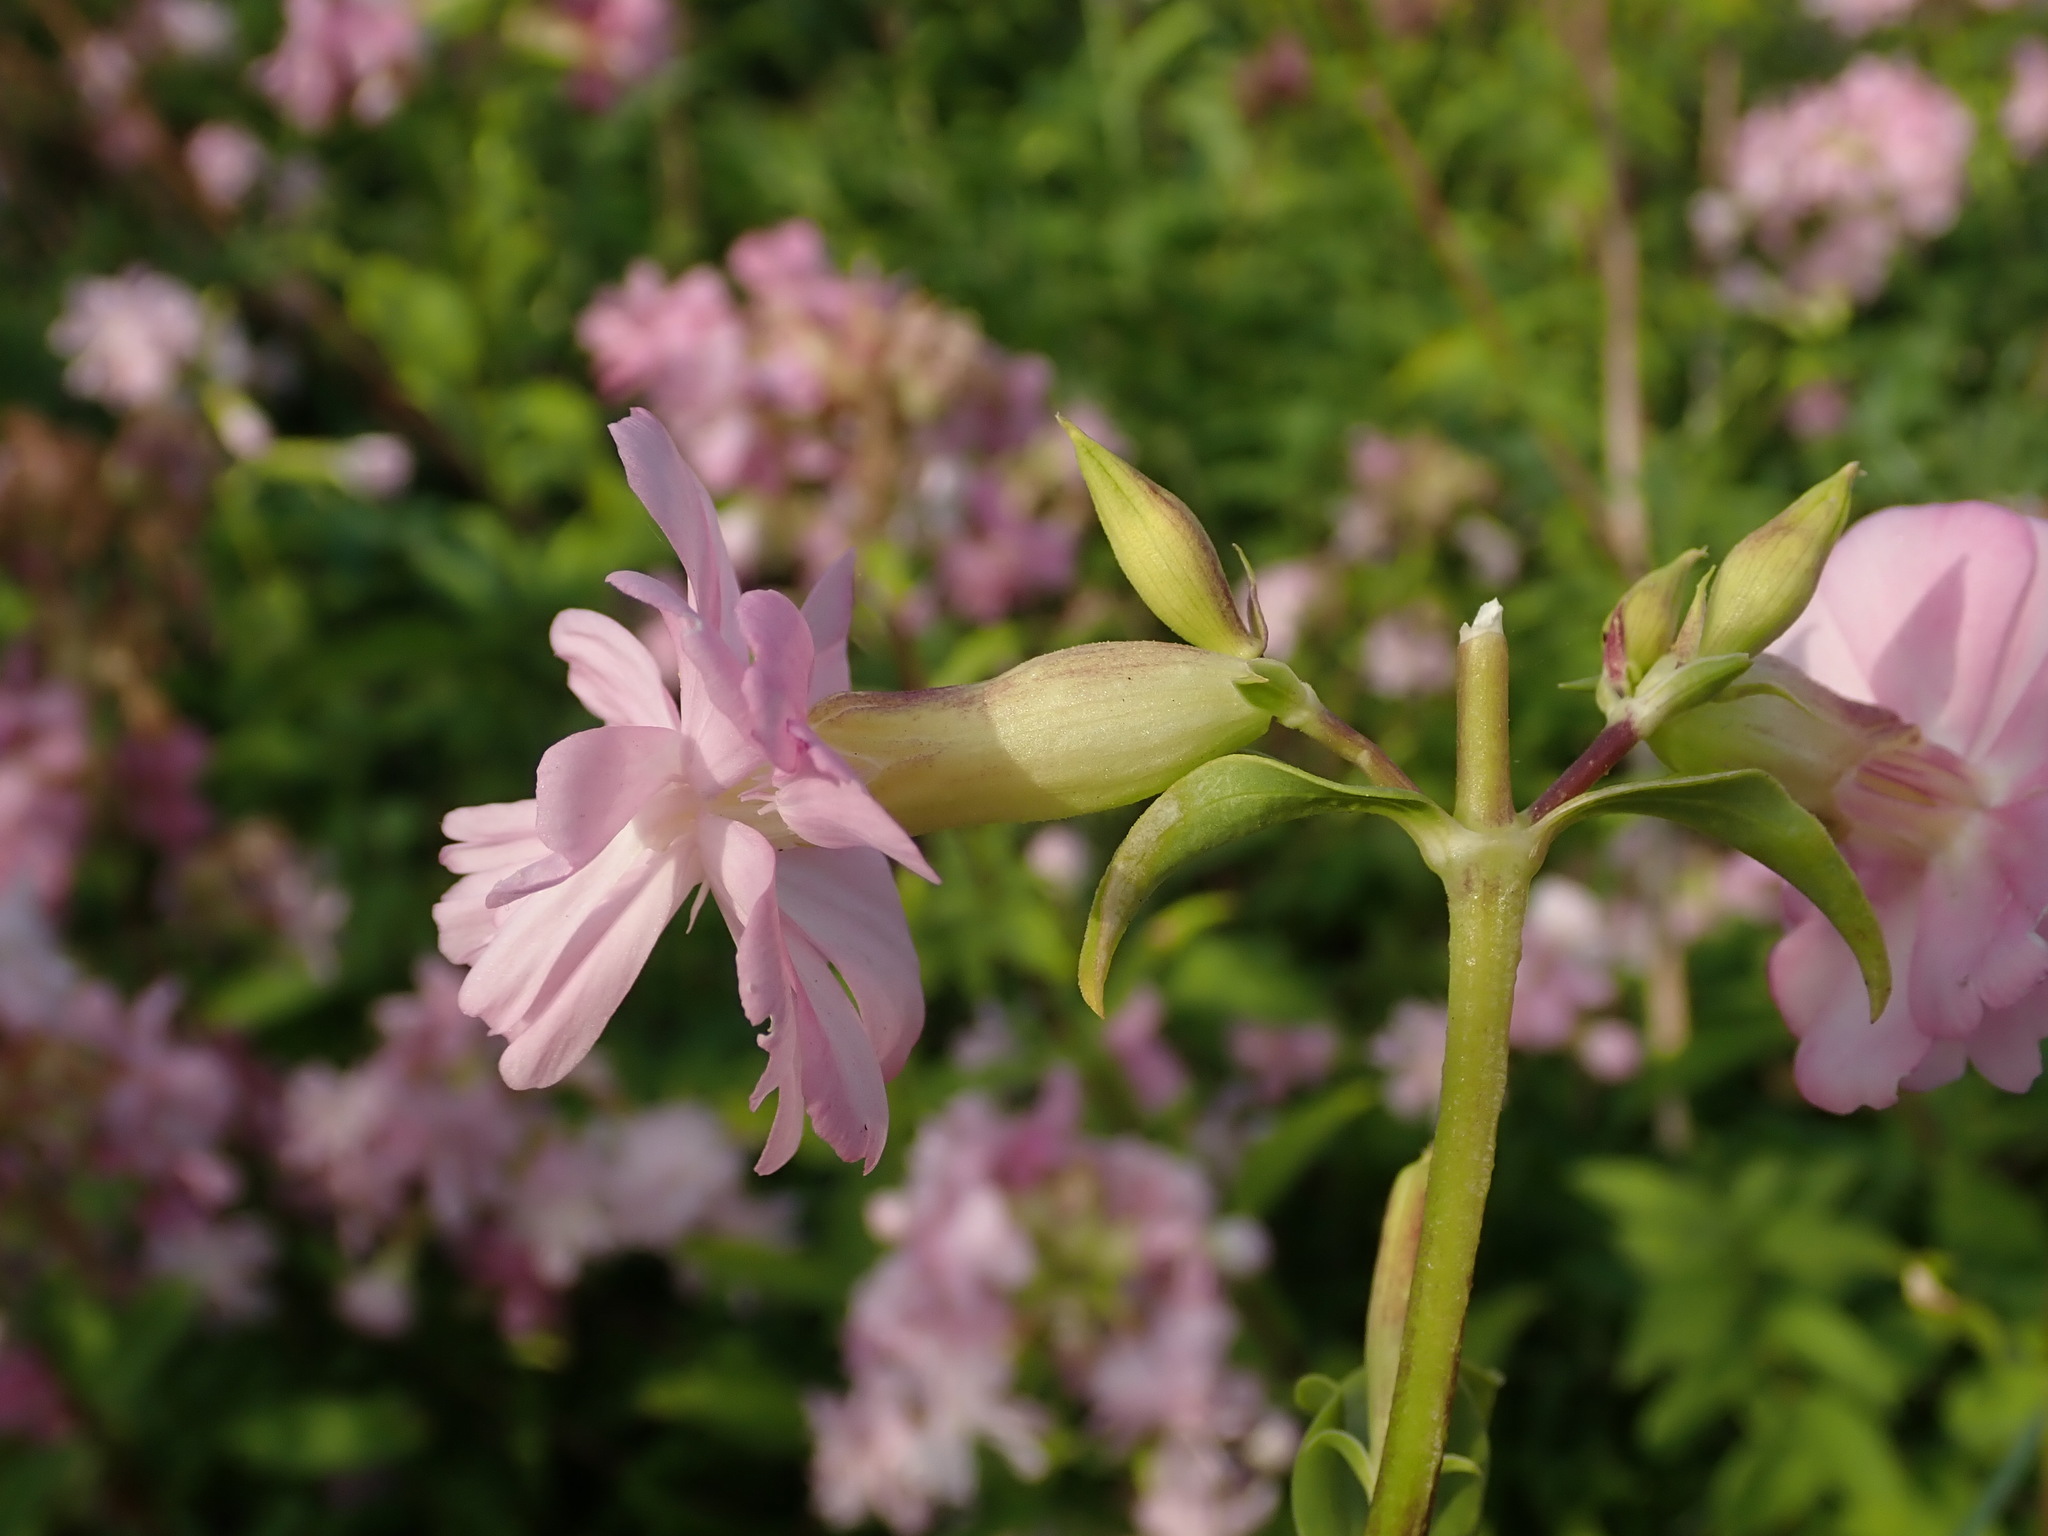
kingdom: Plantae
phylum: Tracheophyta
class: Magnoliopsida
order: Caryophyllales
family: Caryophyllaceae
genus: Saponaria
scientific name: Saponaria officinalis
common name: Soapwort
